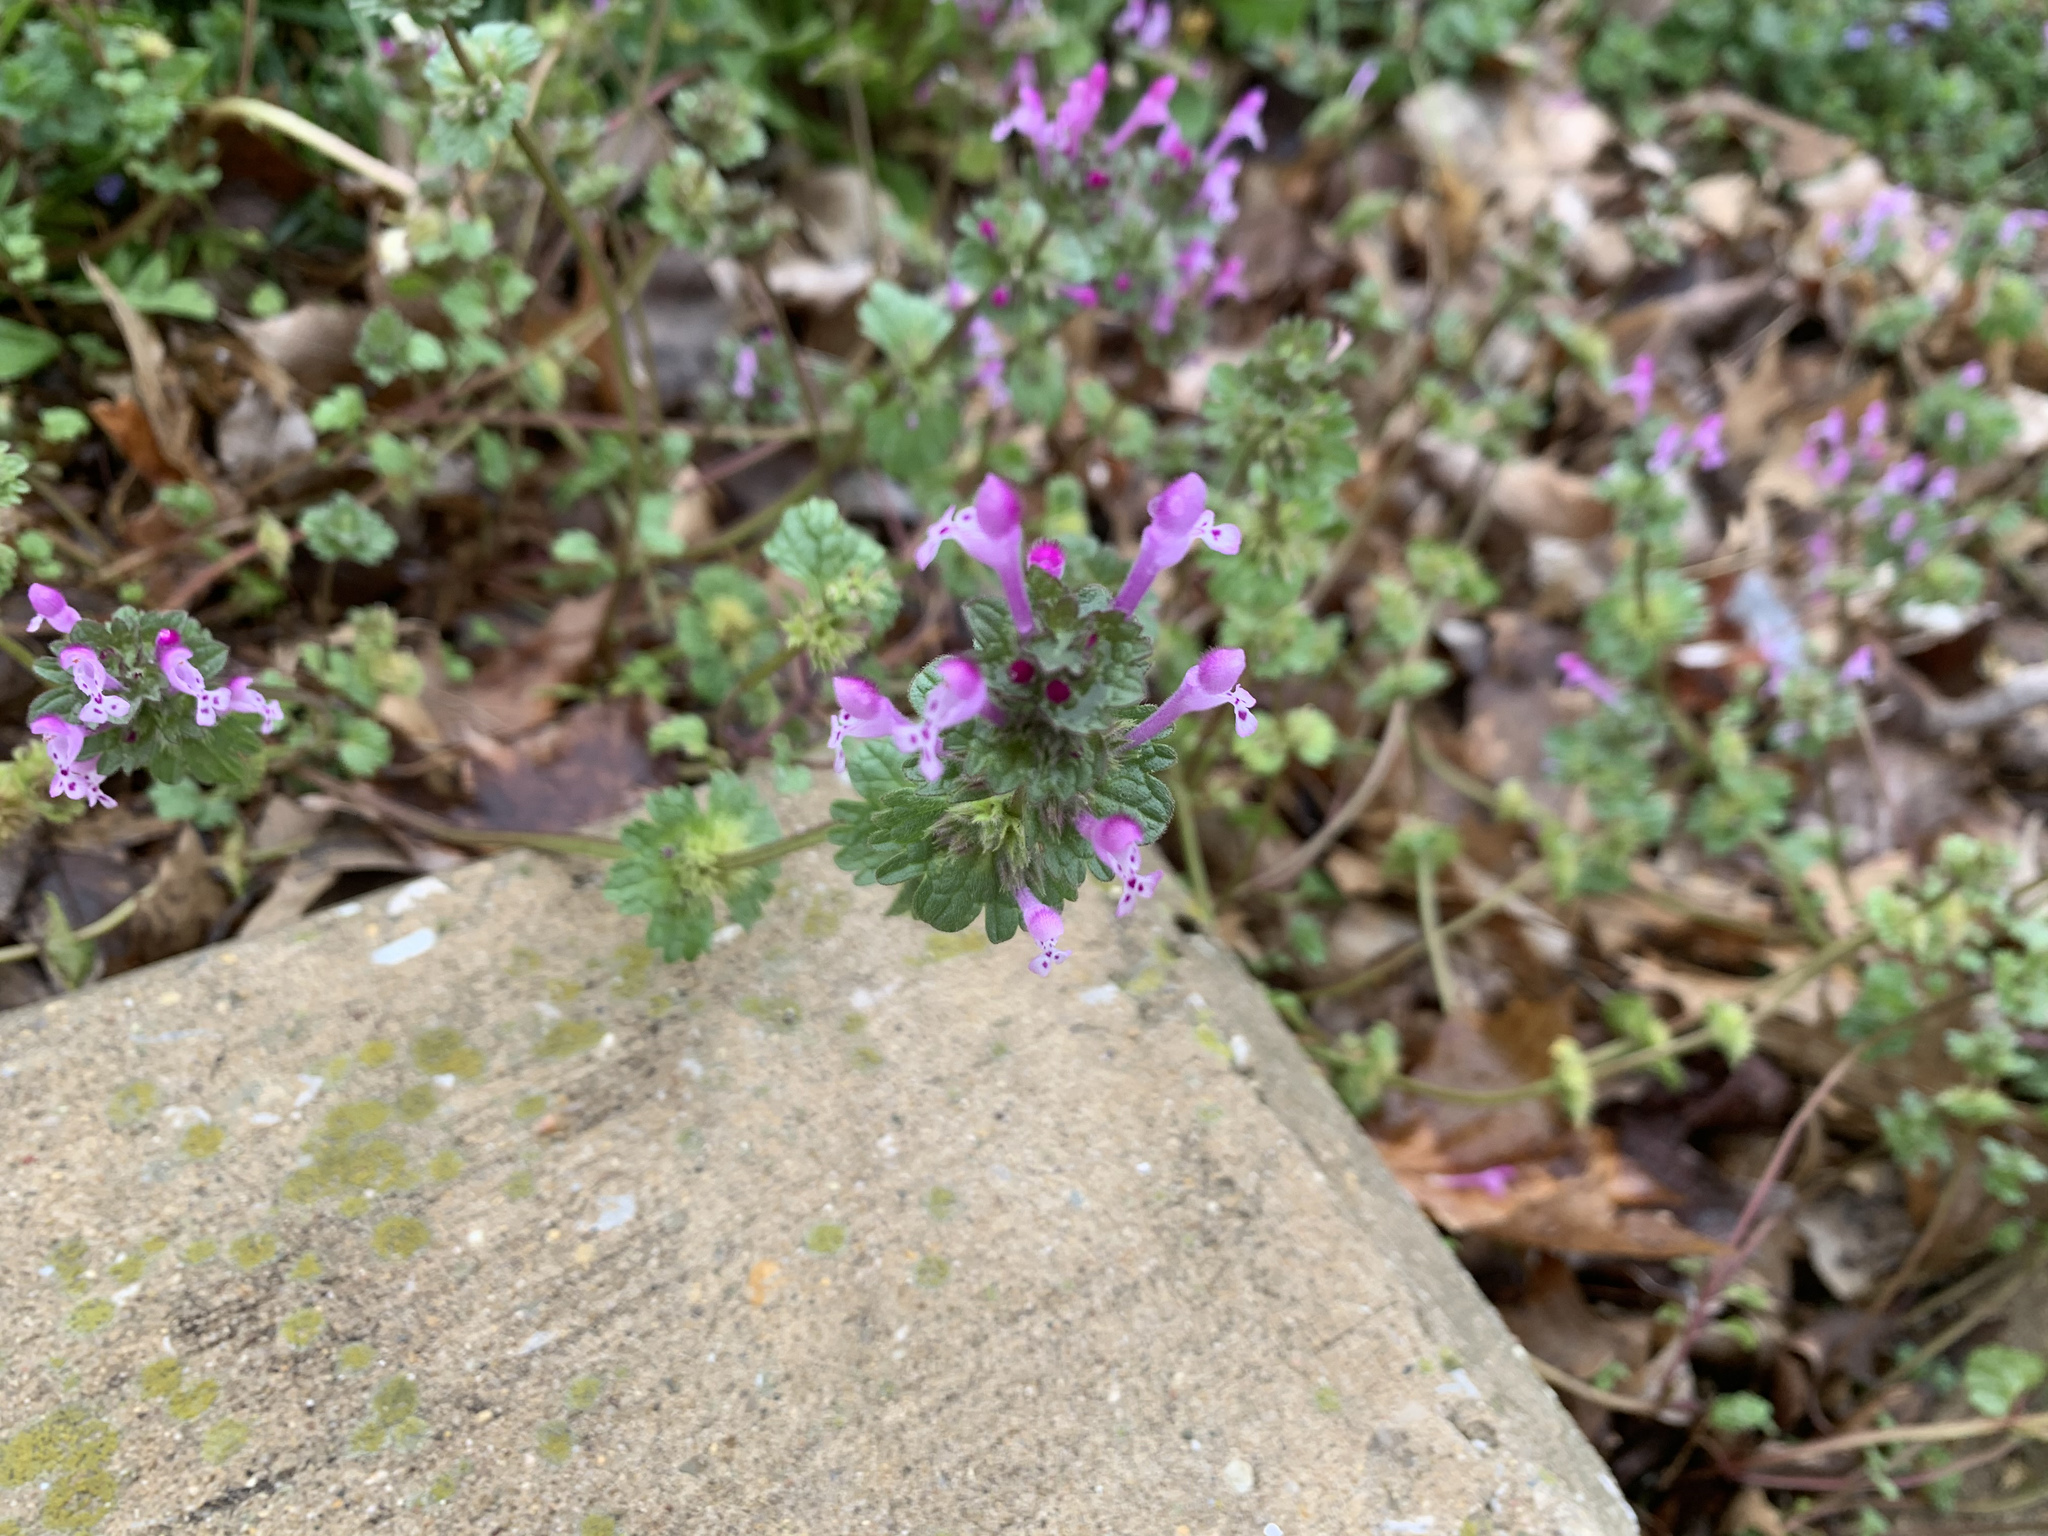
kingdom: Plantae
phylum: Tracheophyta
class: Magnoliopsida
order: Lamiales
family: Lamiaceae
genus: Lamium
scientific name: Lamium amplexicaule
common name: Henbit dead-nettle
